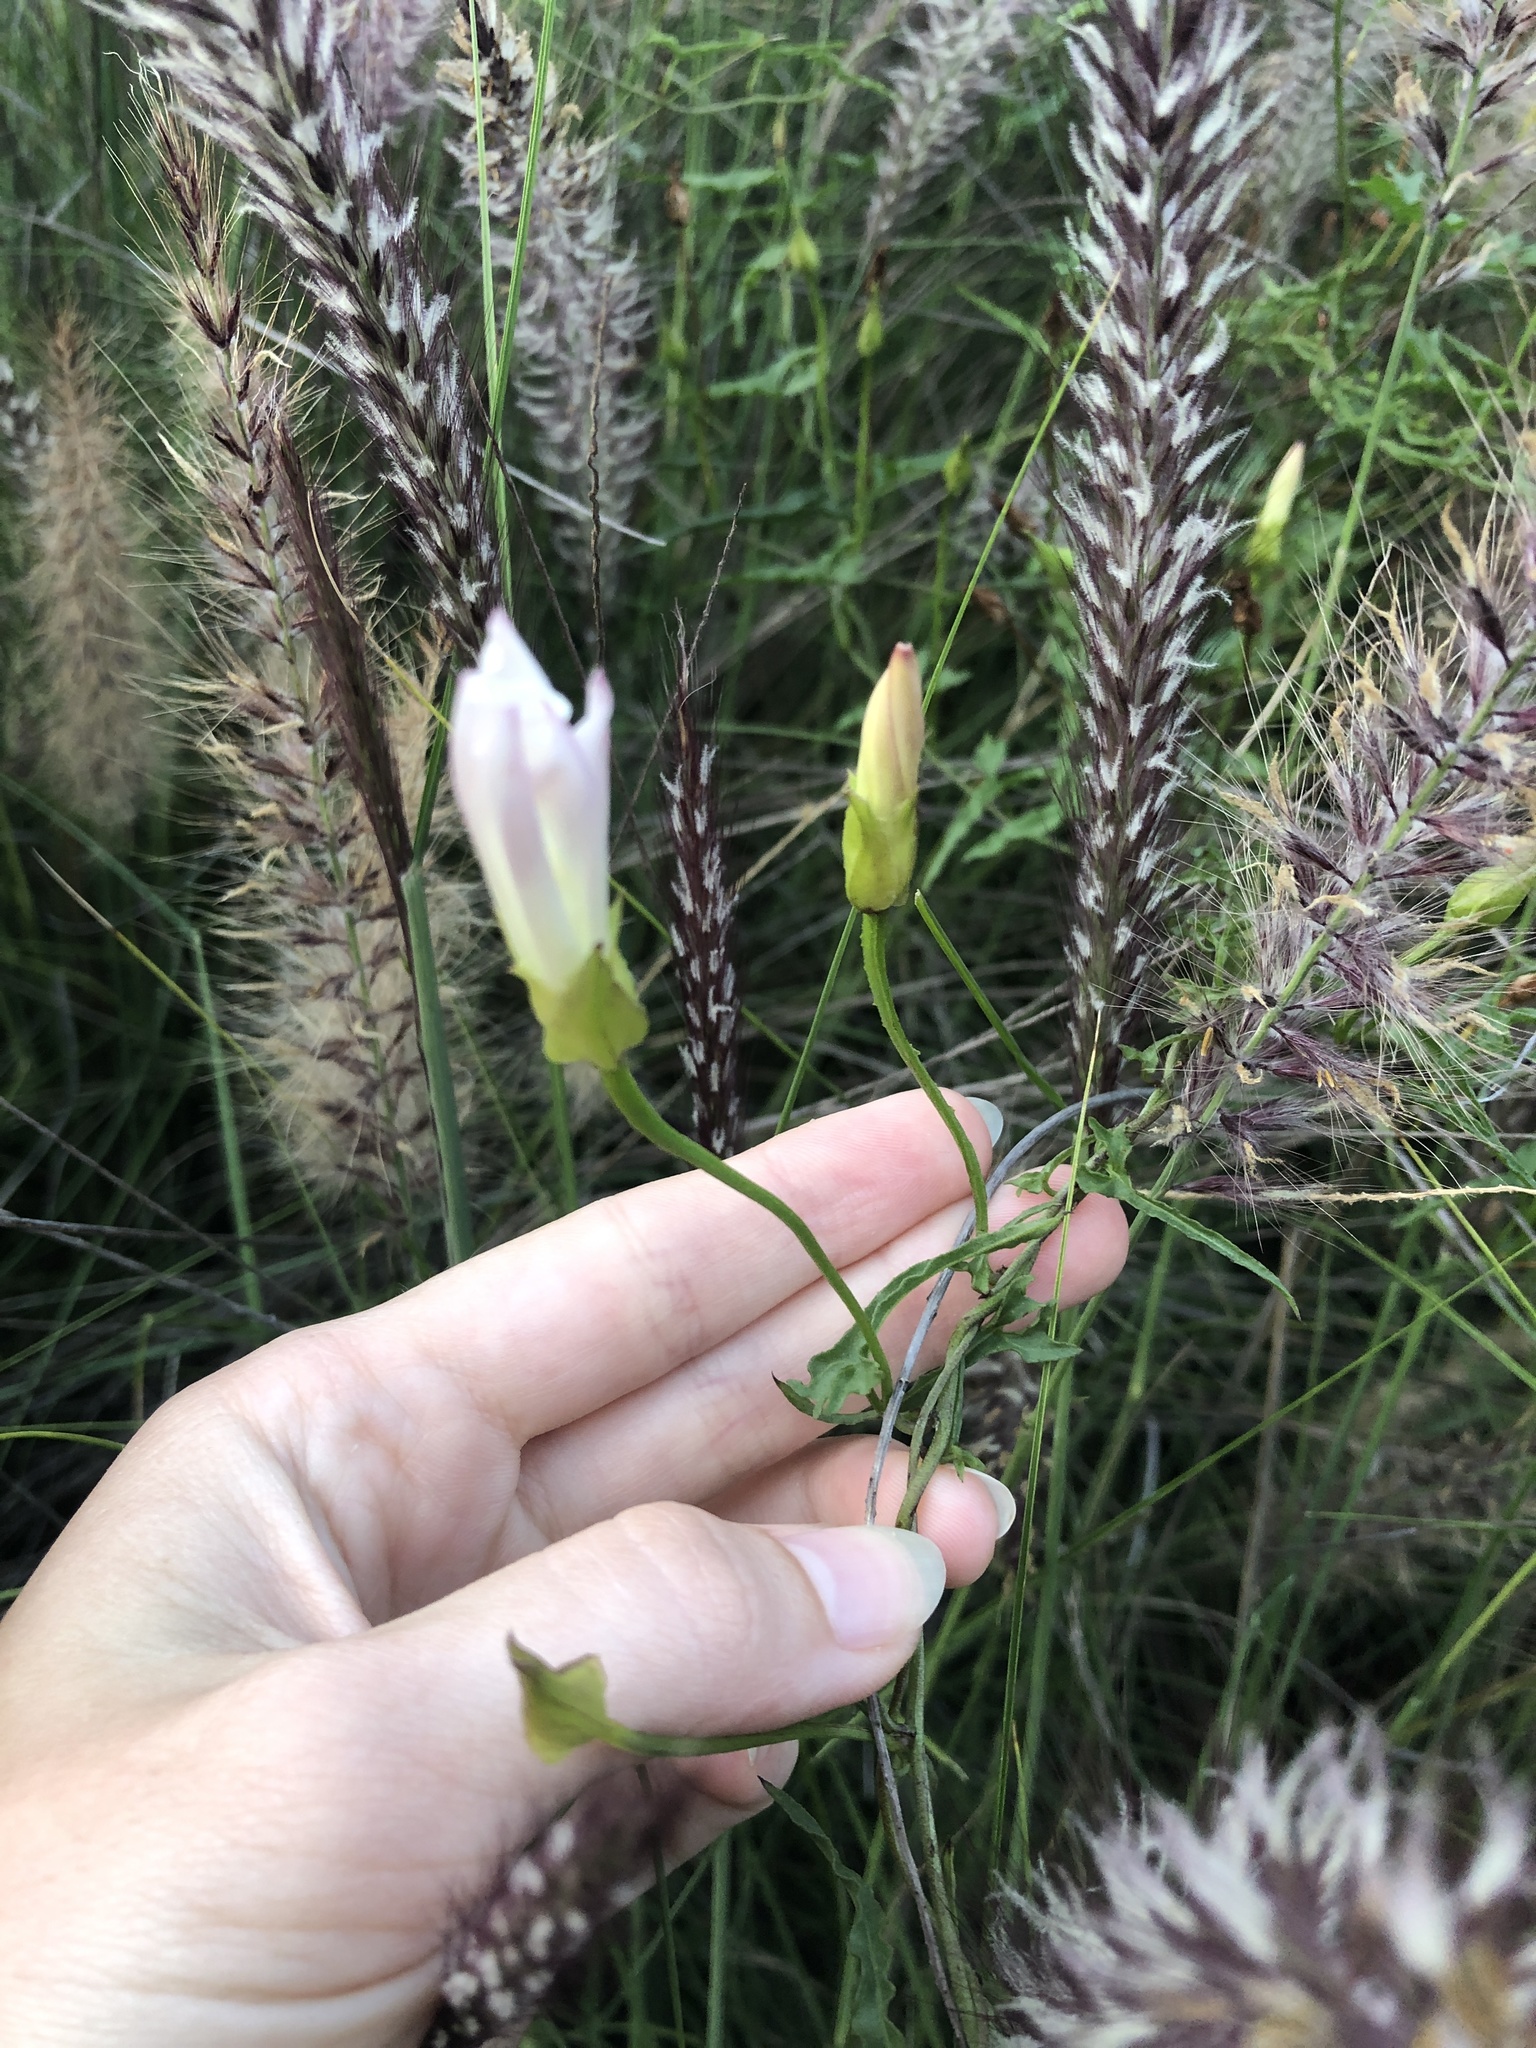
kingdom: Plantae
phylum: Tracheophyta
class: Magnoliopsida
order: Solanales
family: Convolvulaceae
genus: Calystegia
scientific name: Calystegia macrostegia
